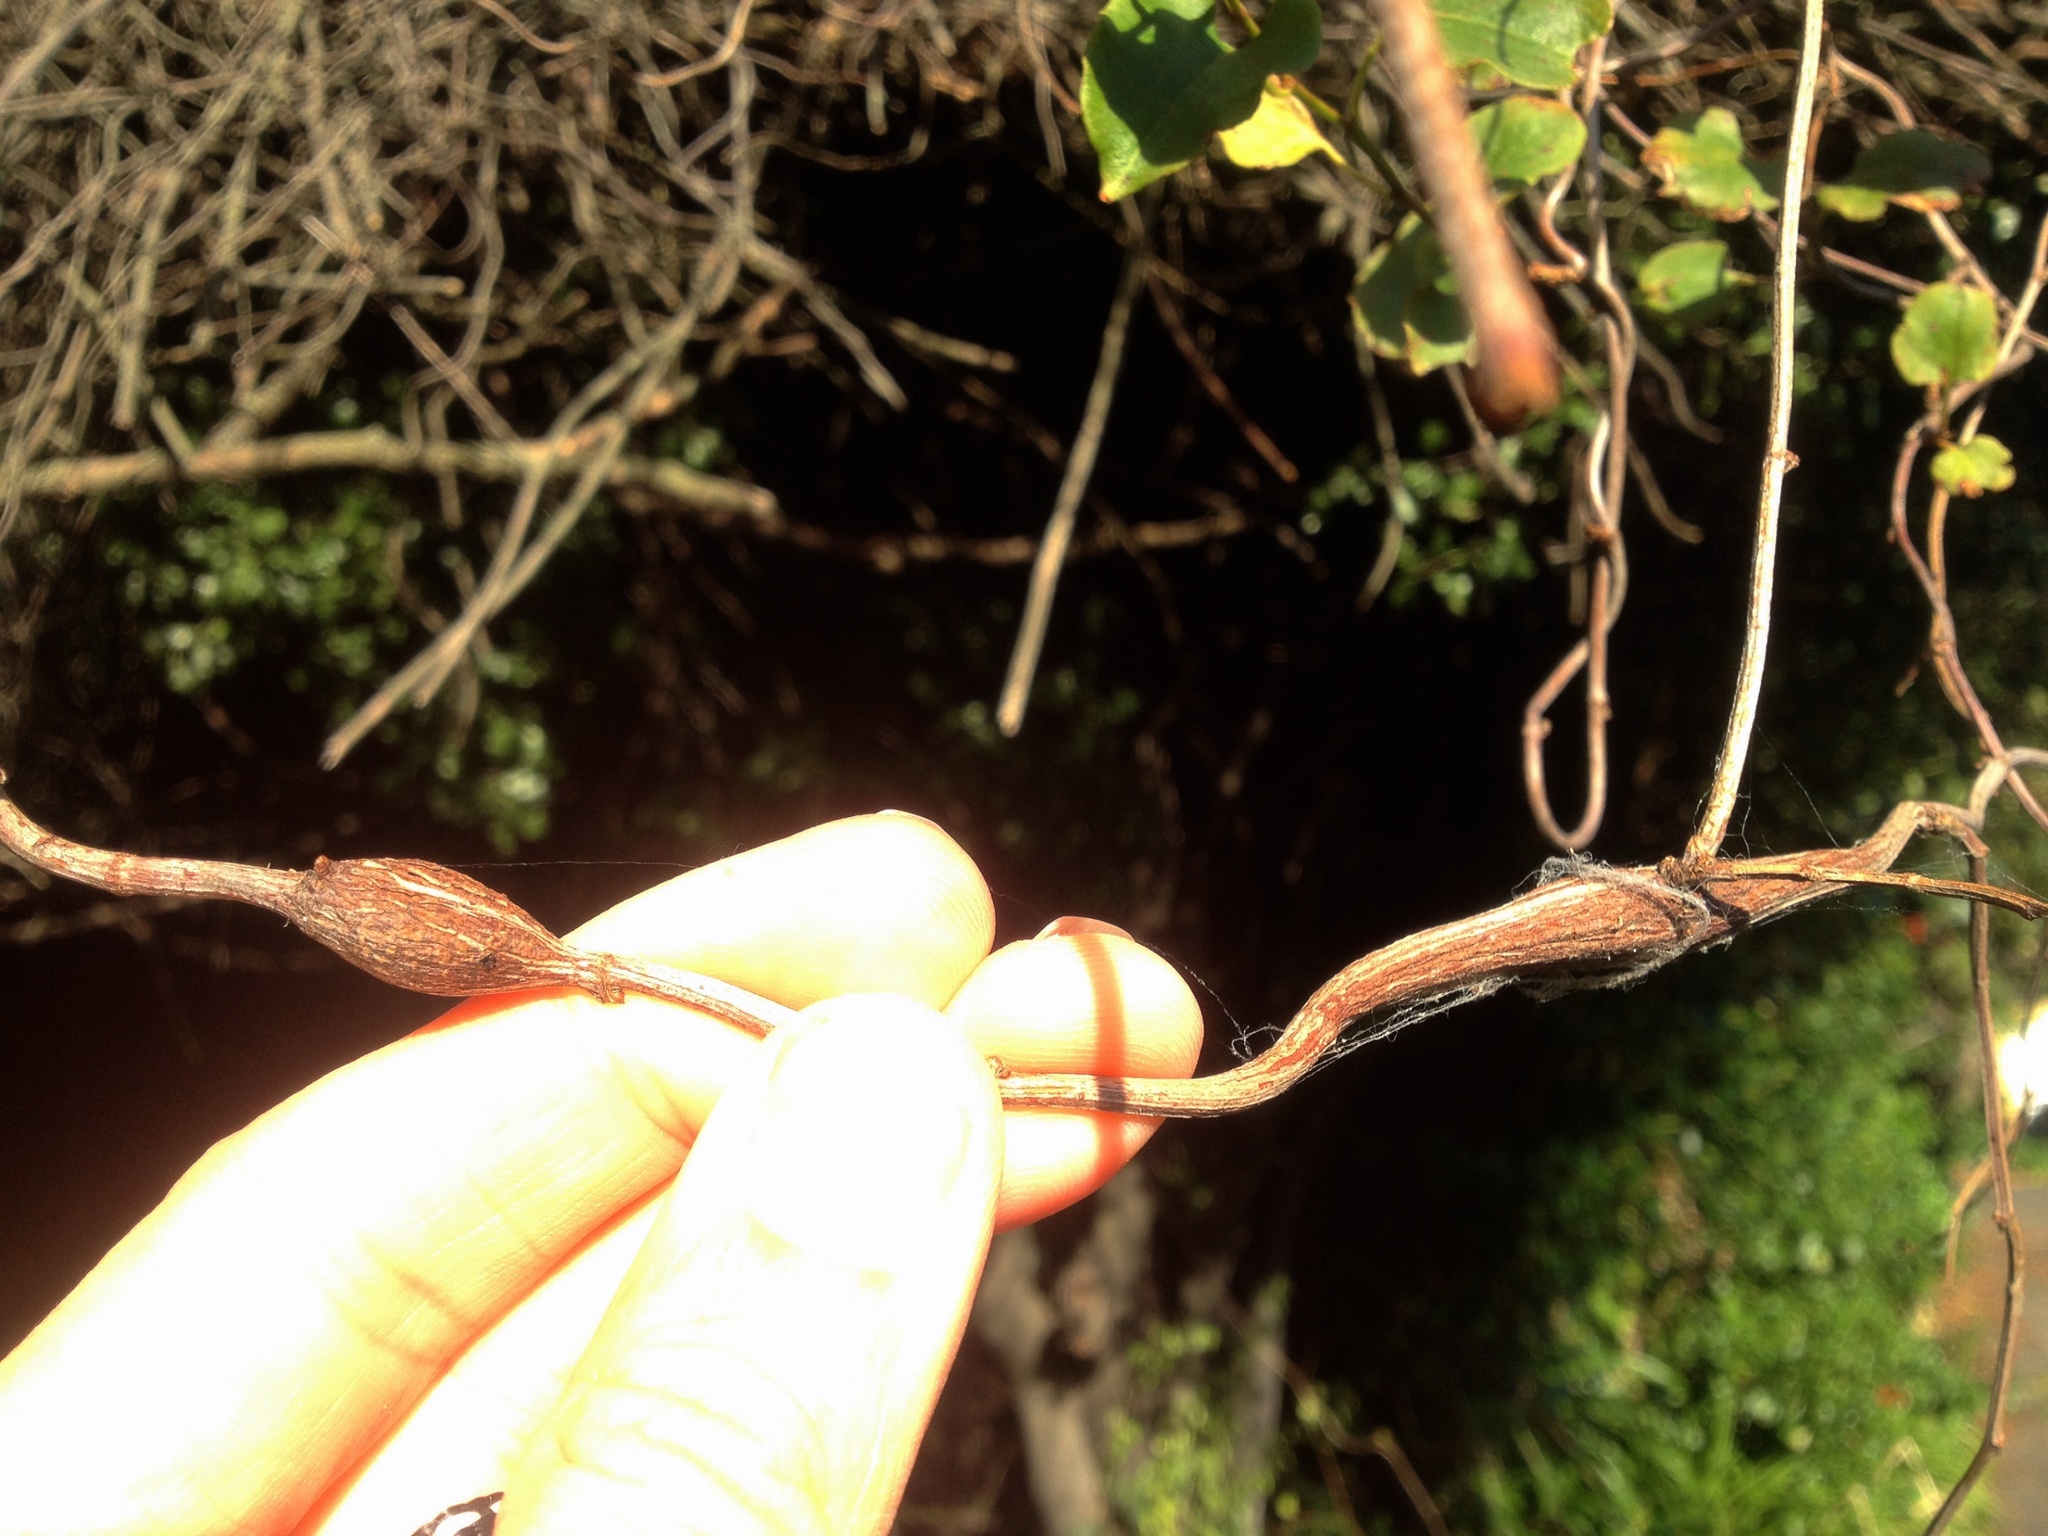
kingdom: Animalia
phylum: Arthropoda
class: Insecta
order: Lepidoptera
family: Thyrididae
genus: Morova
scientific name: Morova subfasciata
